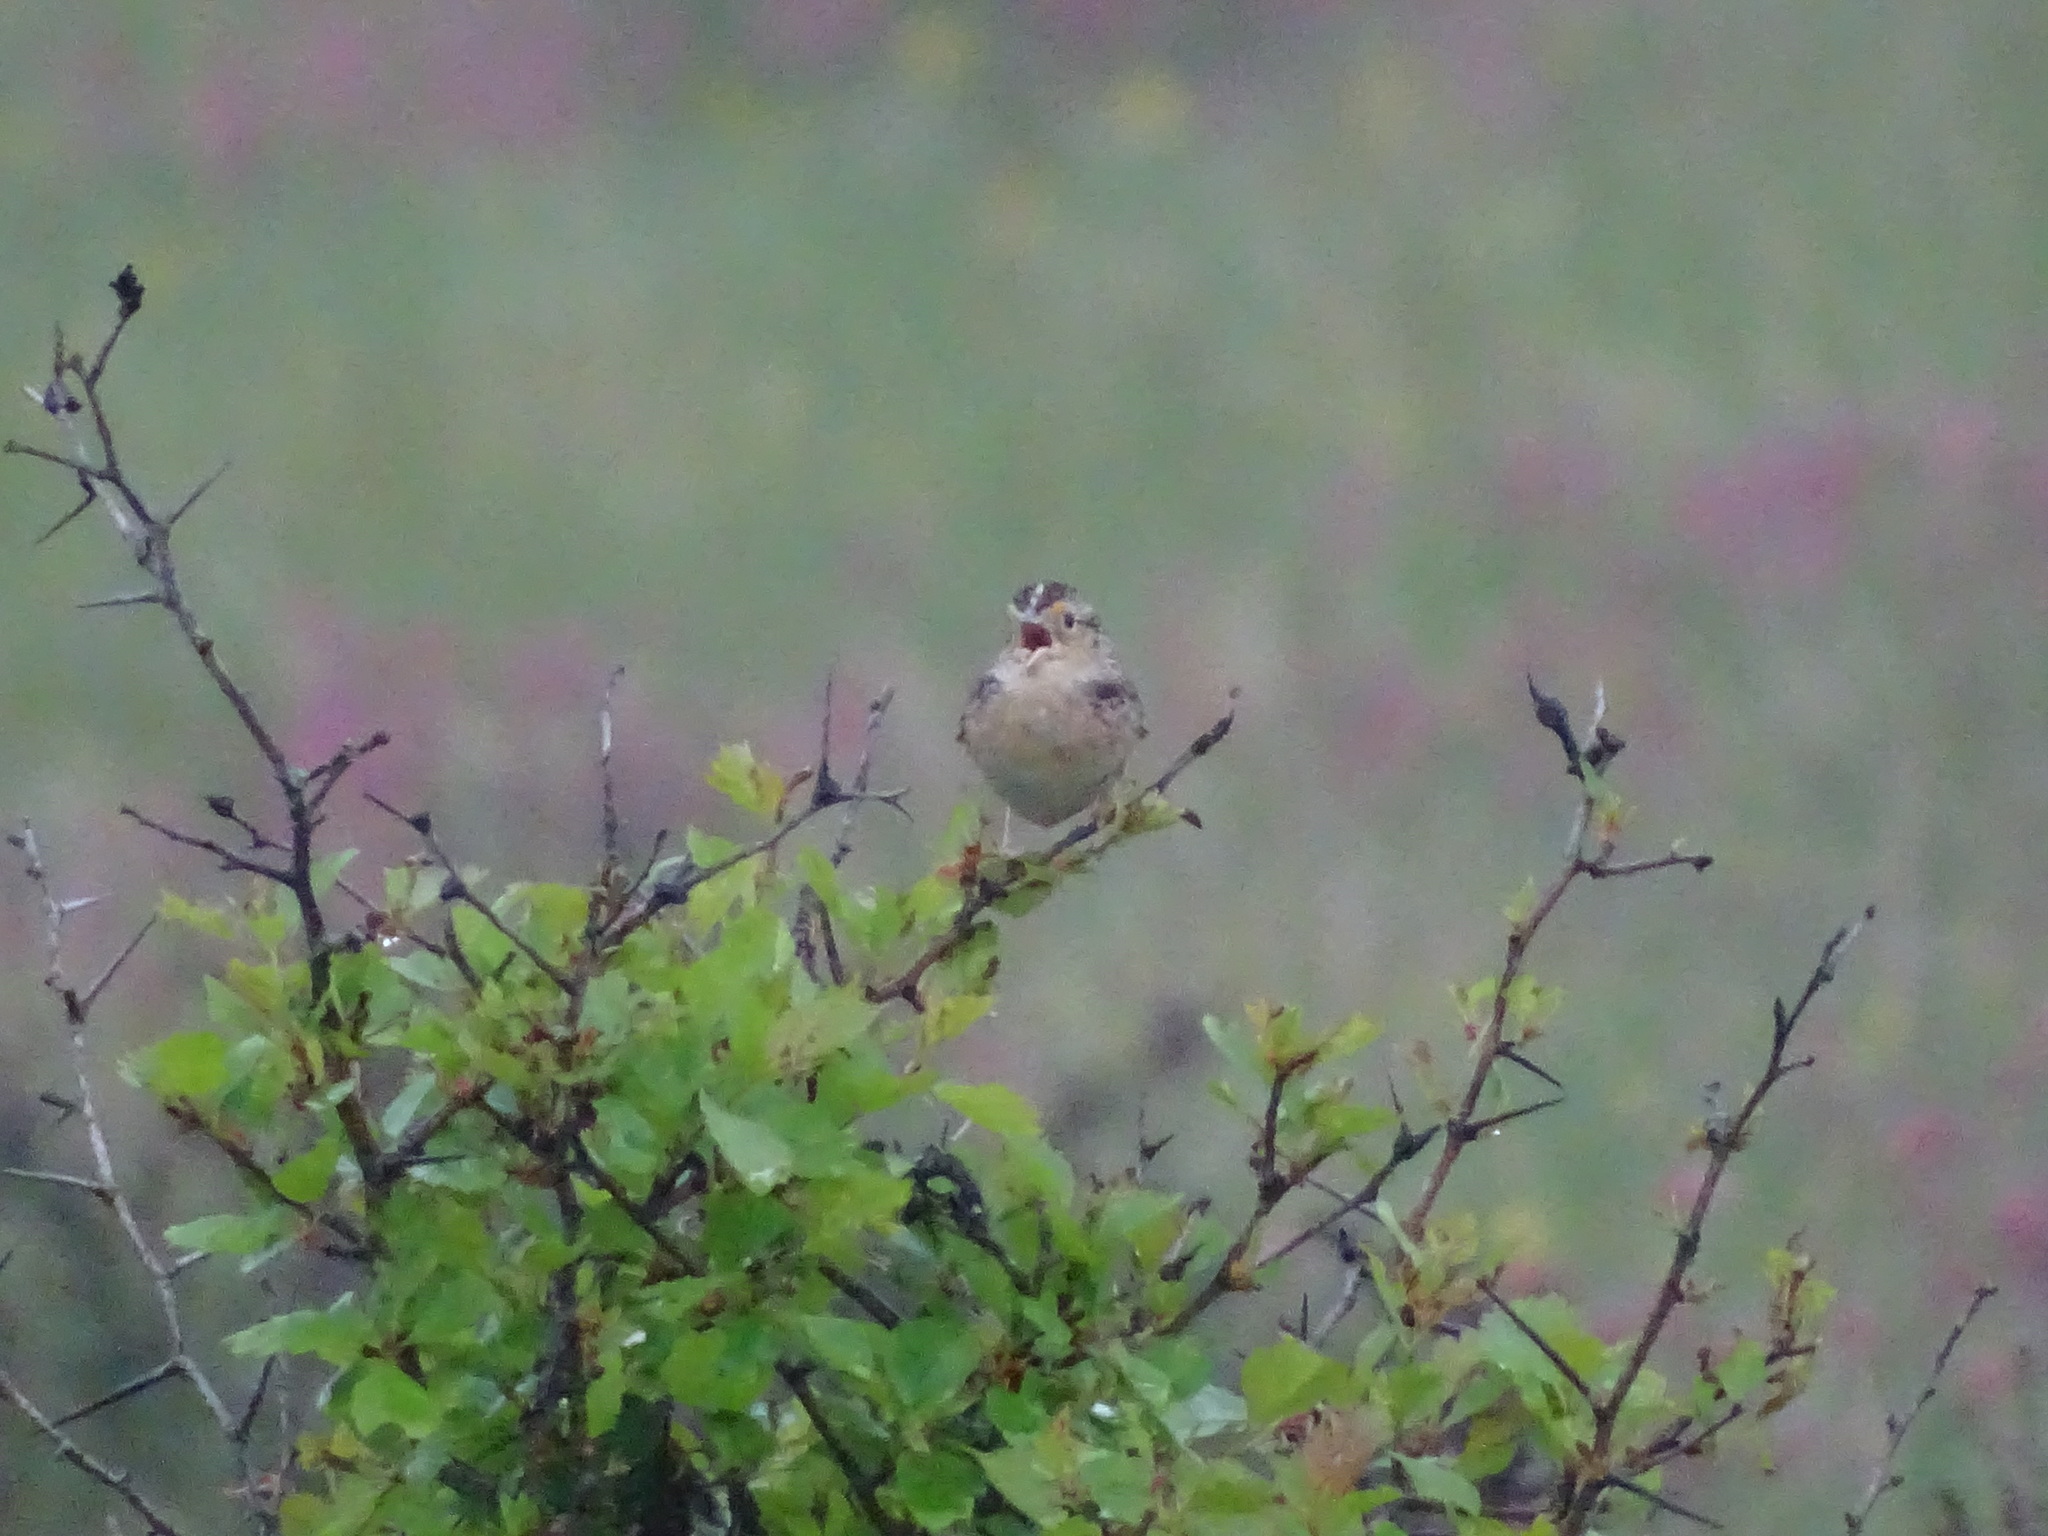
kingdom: Animalia
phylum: Chordata
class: Aves
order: Passeriformes
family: Passerellidae
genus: Ammodramus
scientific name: Ammodramus savannarum
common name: Grasshopper sparrow
